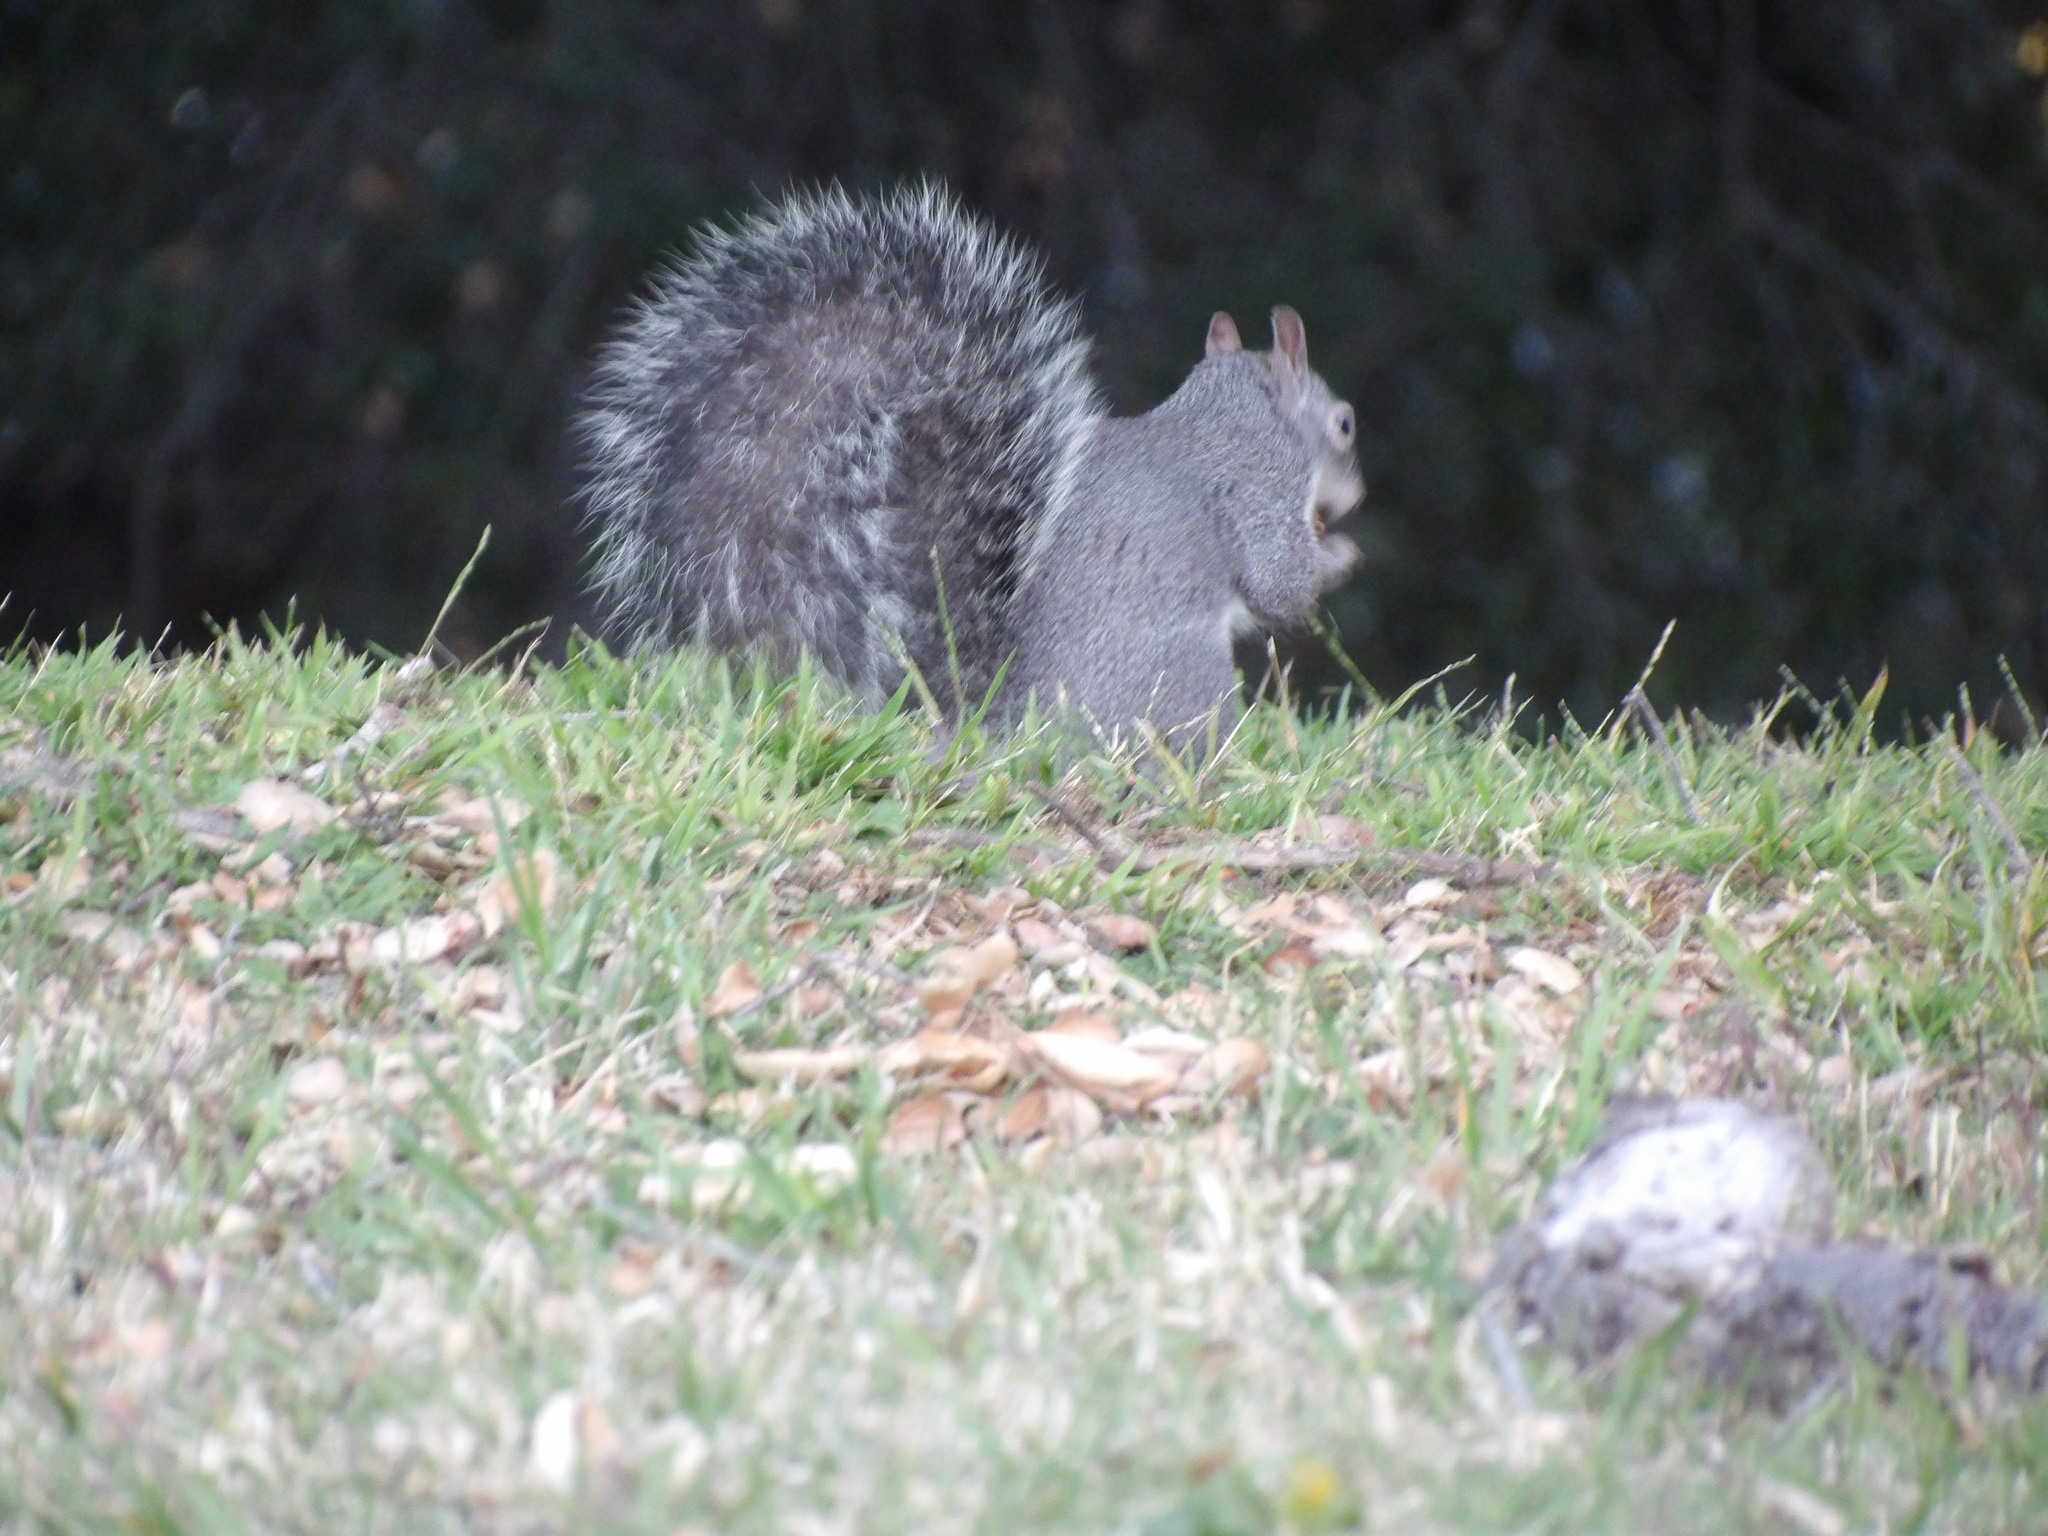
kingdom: Animalia
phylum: Chordata
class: Mammalia
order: Rodentia
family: Sciuridae
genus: Sciurus
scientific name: Sciurus griseus
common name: Western gray squirrel
